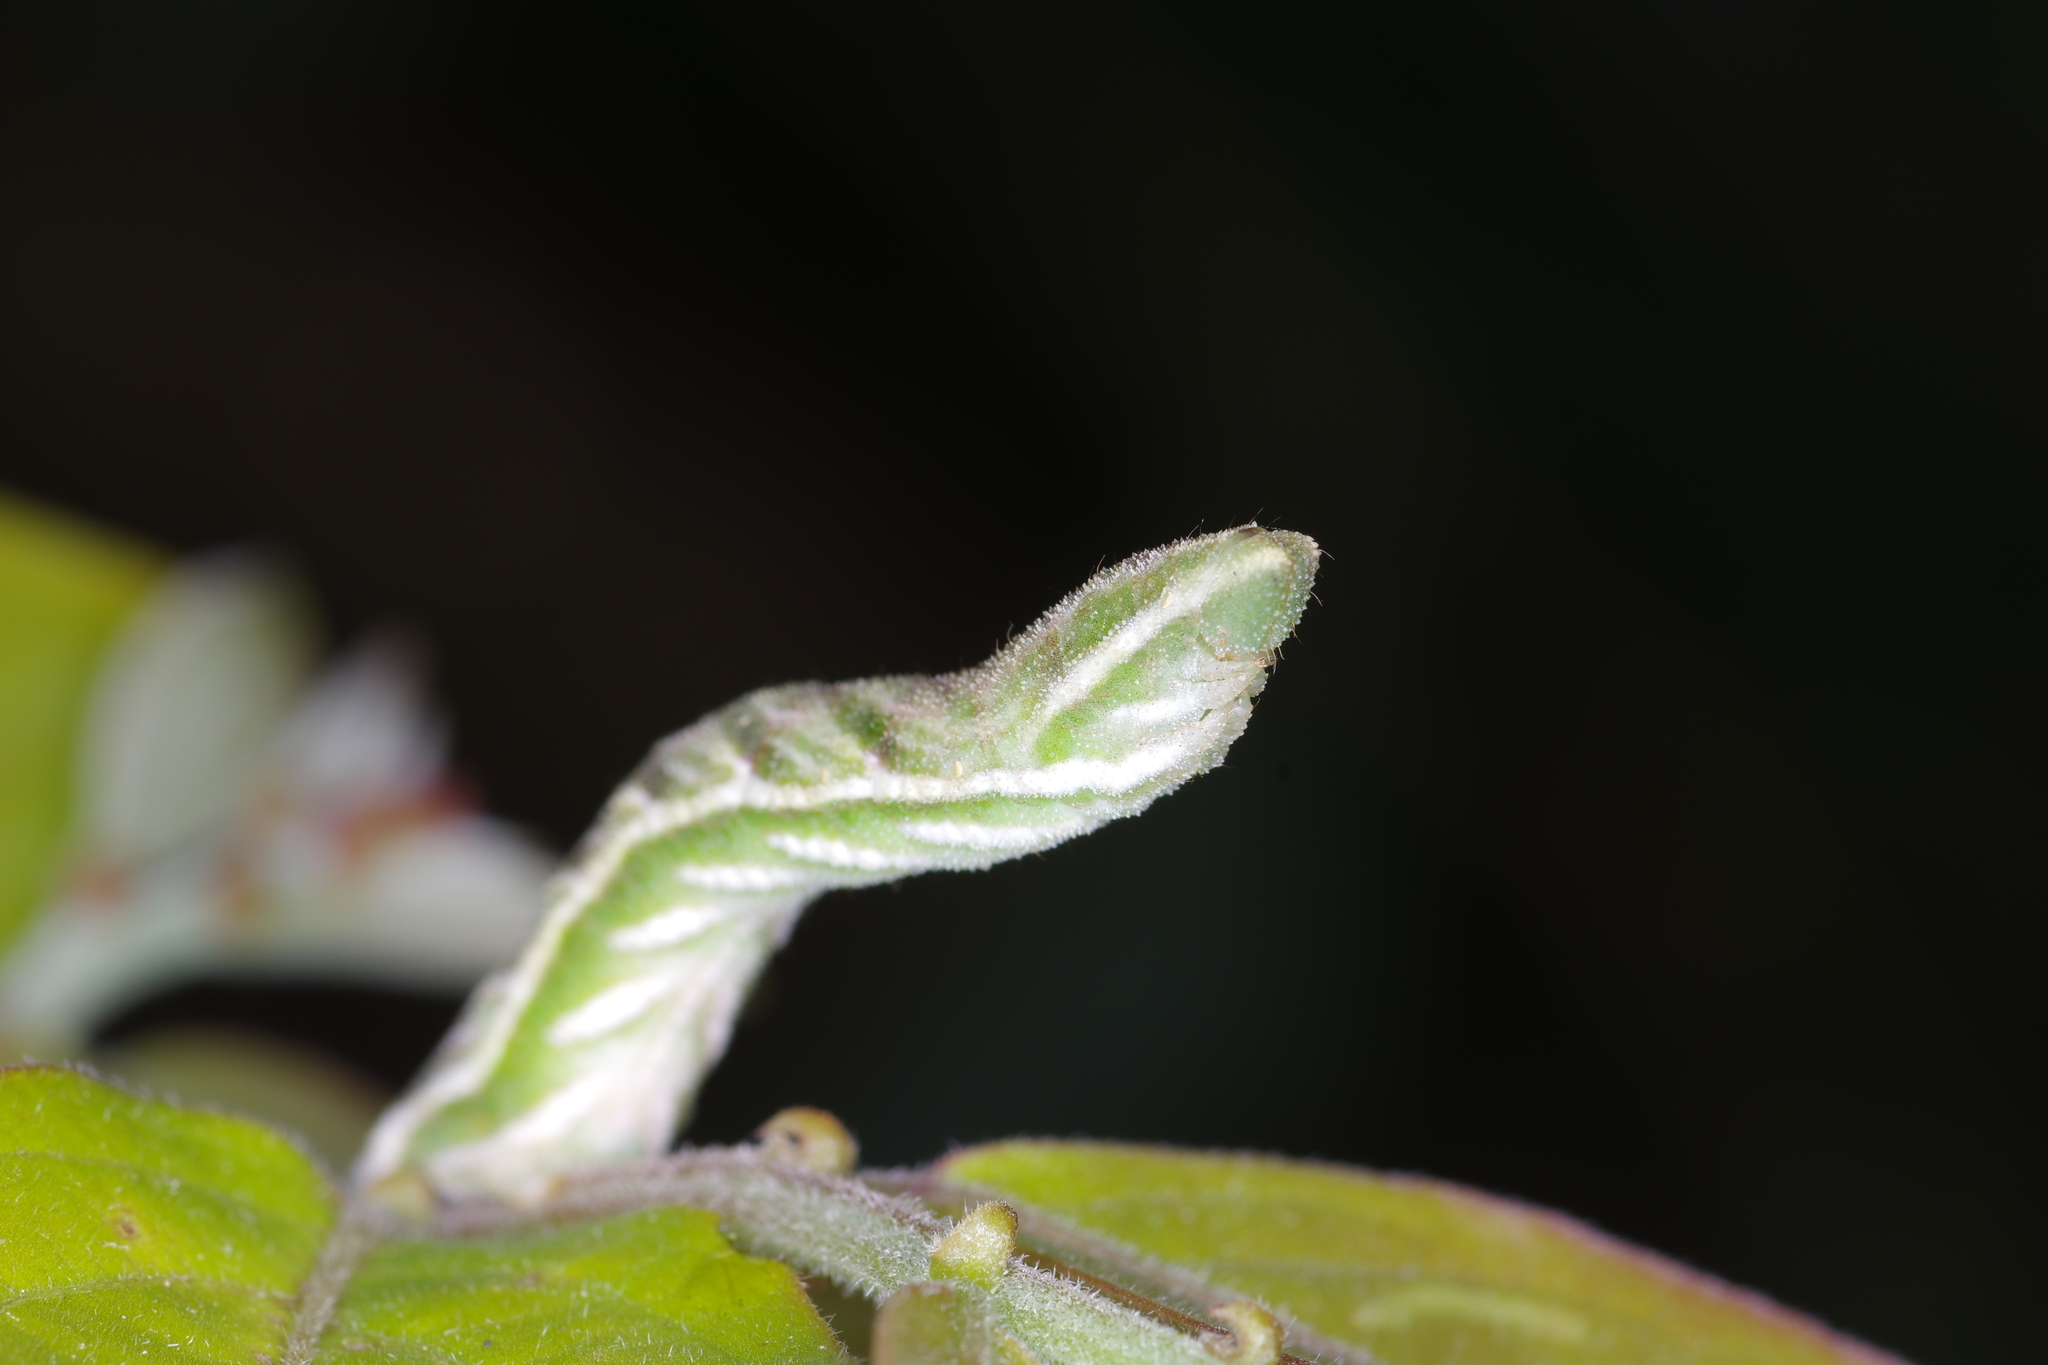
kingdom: Animalia
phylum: Arthropoda
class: Insecta
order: Lepidoptera
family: Geometridae
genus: Pingasa
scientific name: Pingasa ruginaria
